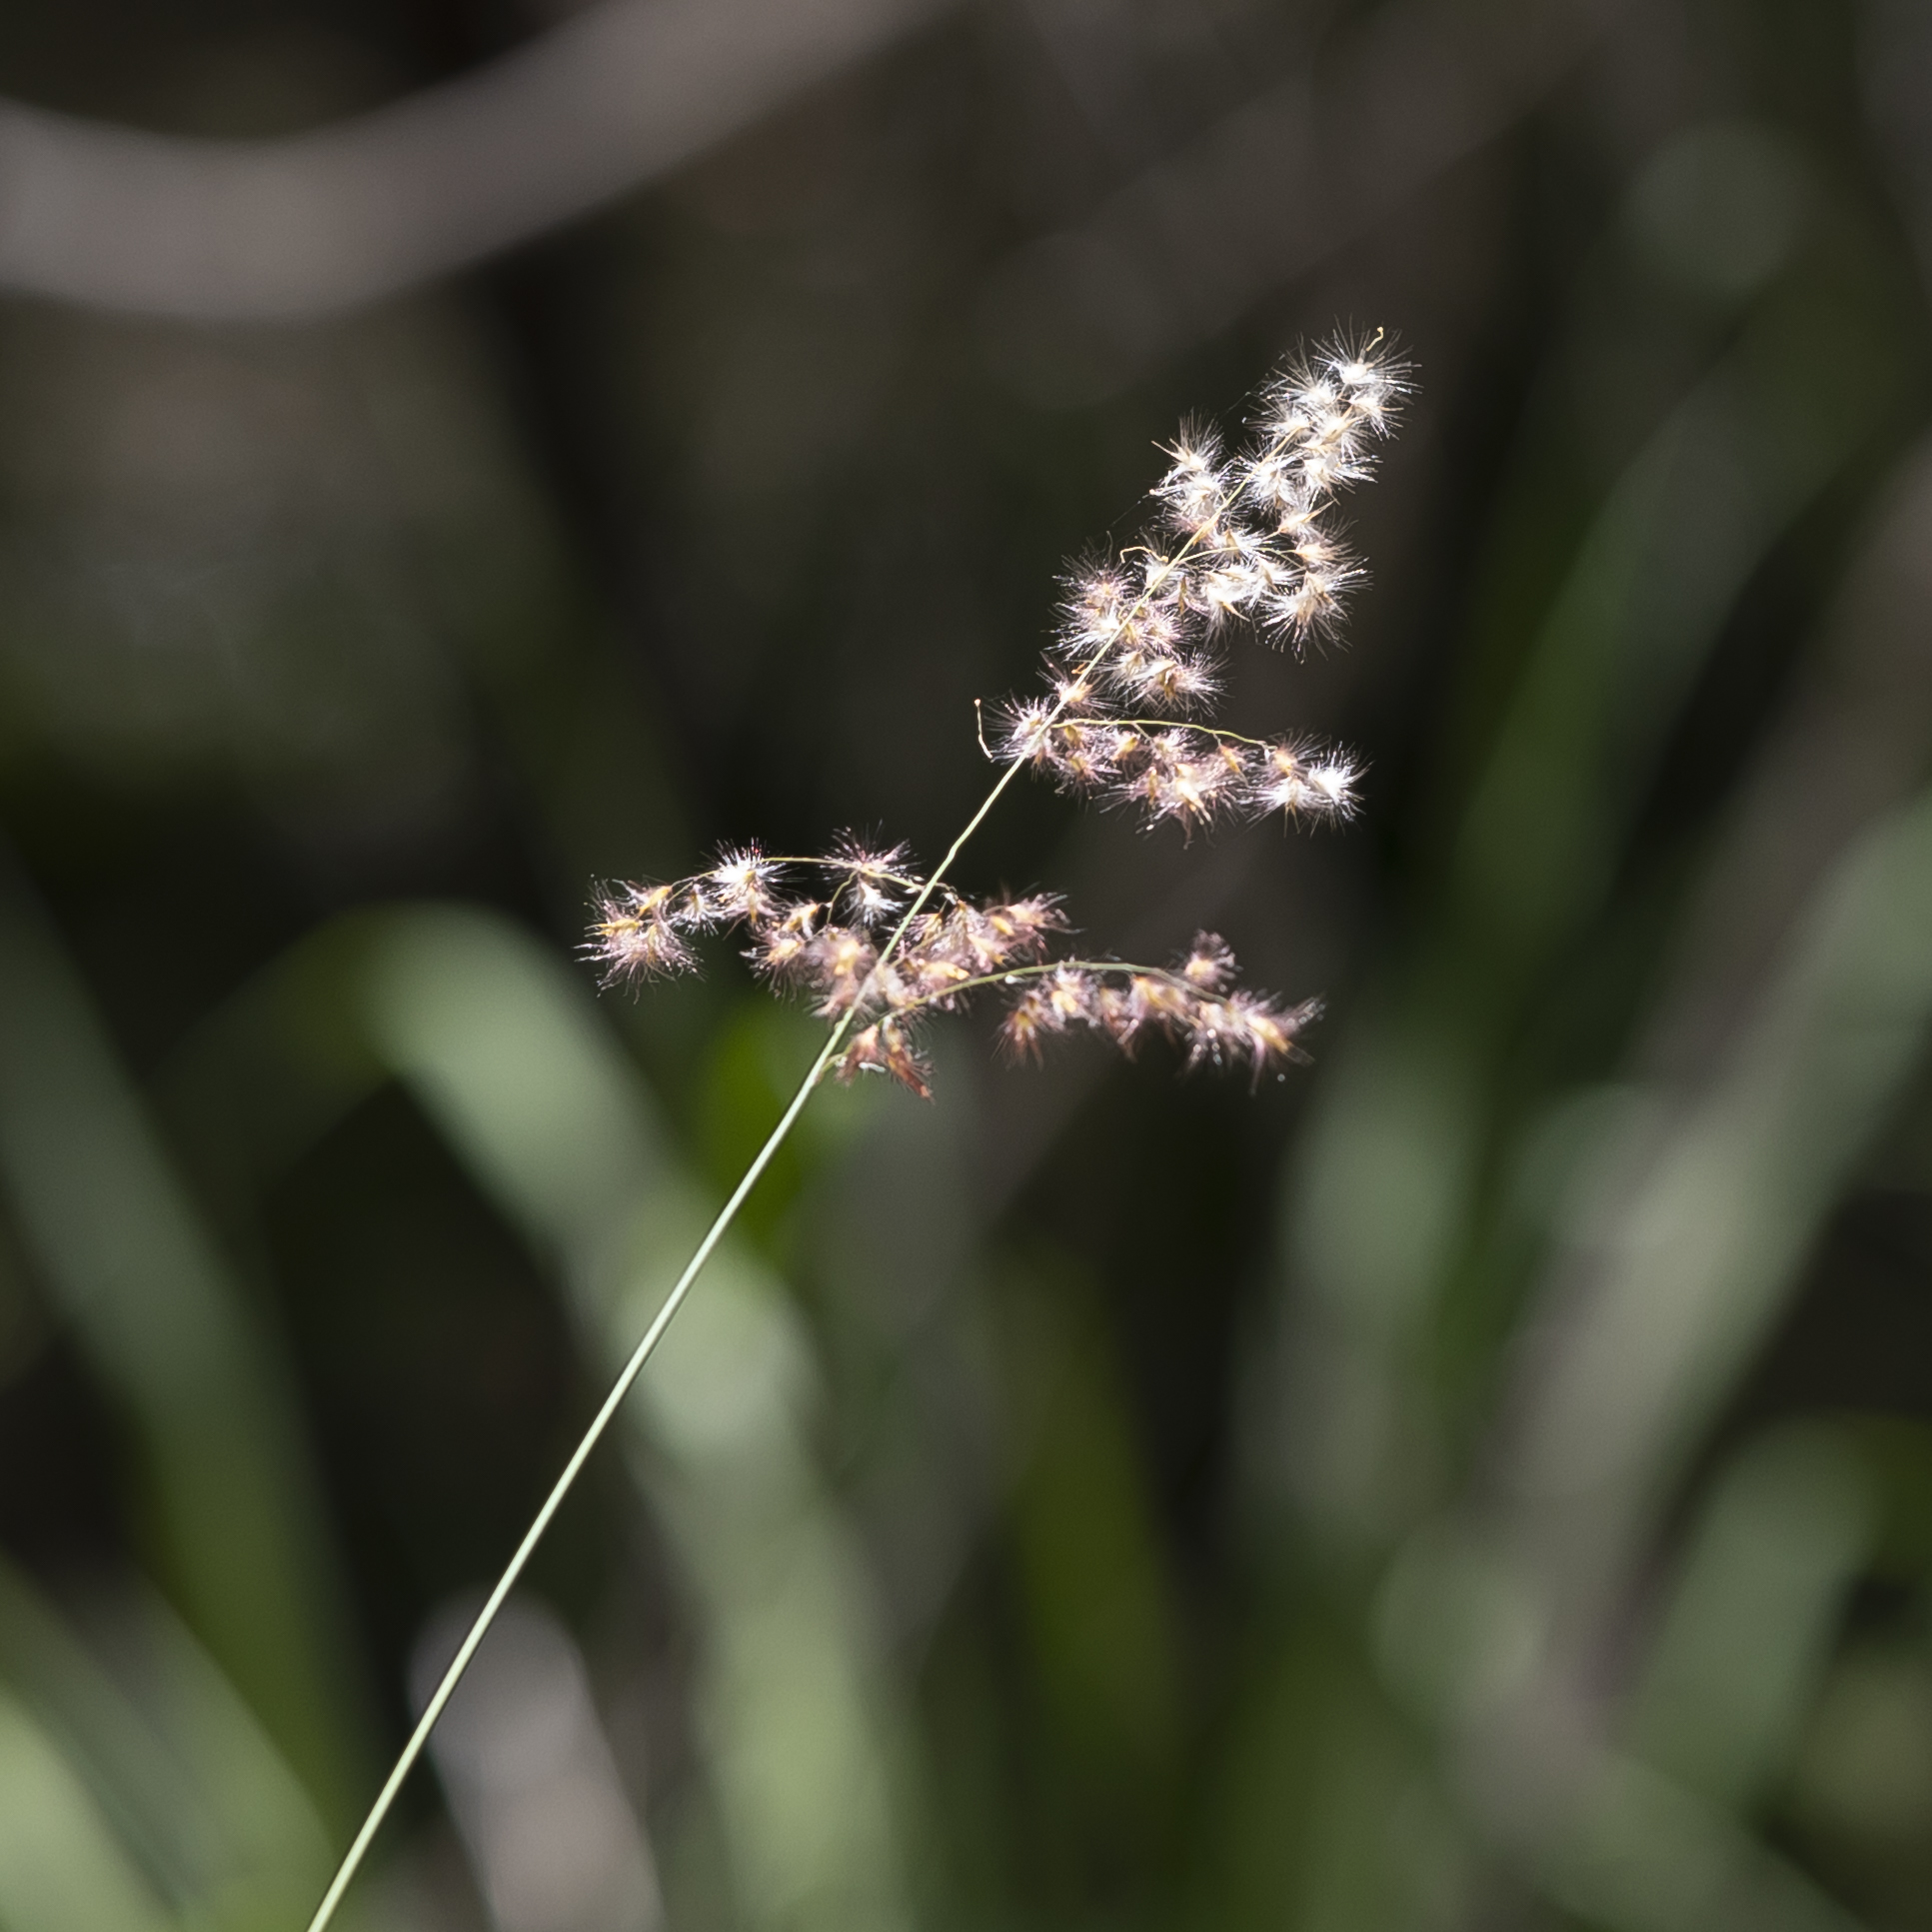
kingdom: Plantae
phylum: Tracheophyta
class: Liliopsida
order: Poales
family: Poaceae
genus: Melinis
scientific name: Melinis repens
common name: Rose natal grass
